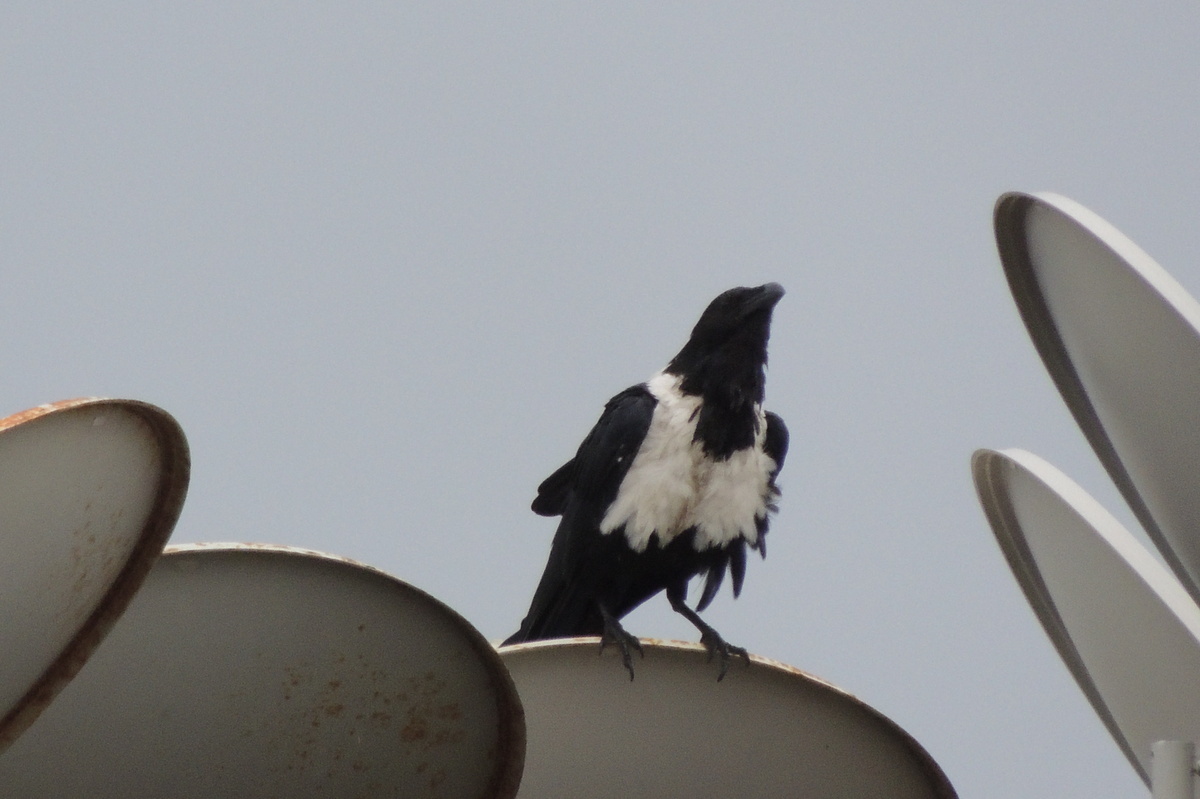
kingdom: Animalia
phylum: Chordata
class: Aves
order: Passeriformes
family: Corvidae
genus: Corvus
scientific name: Corvus albus
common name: Pied crow
